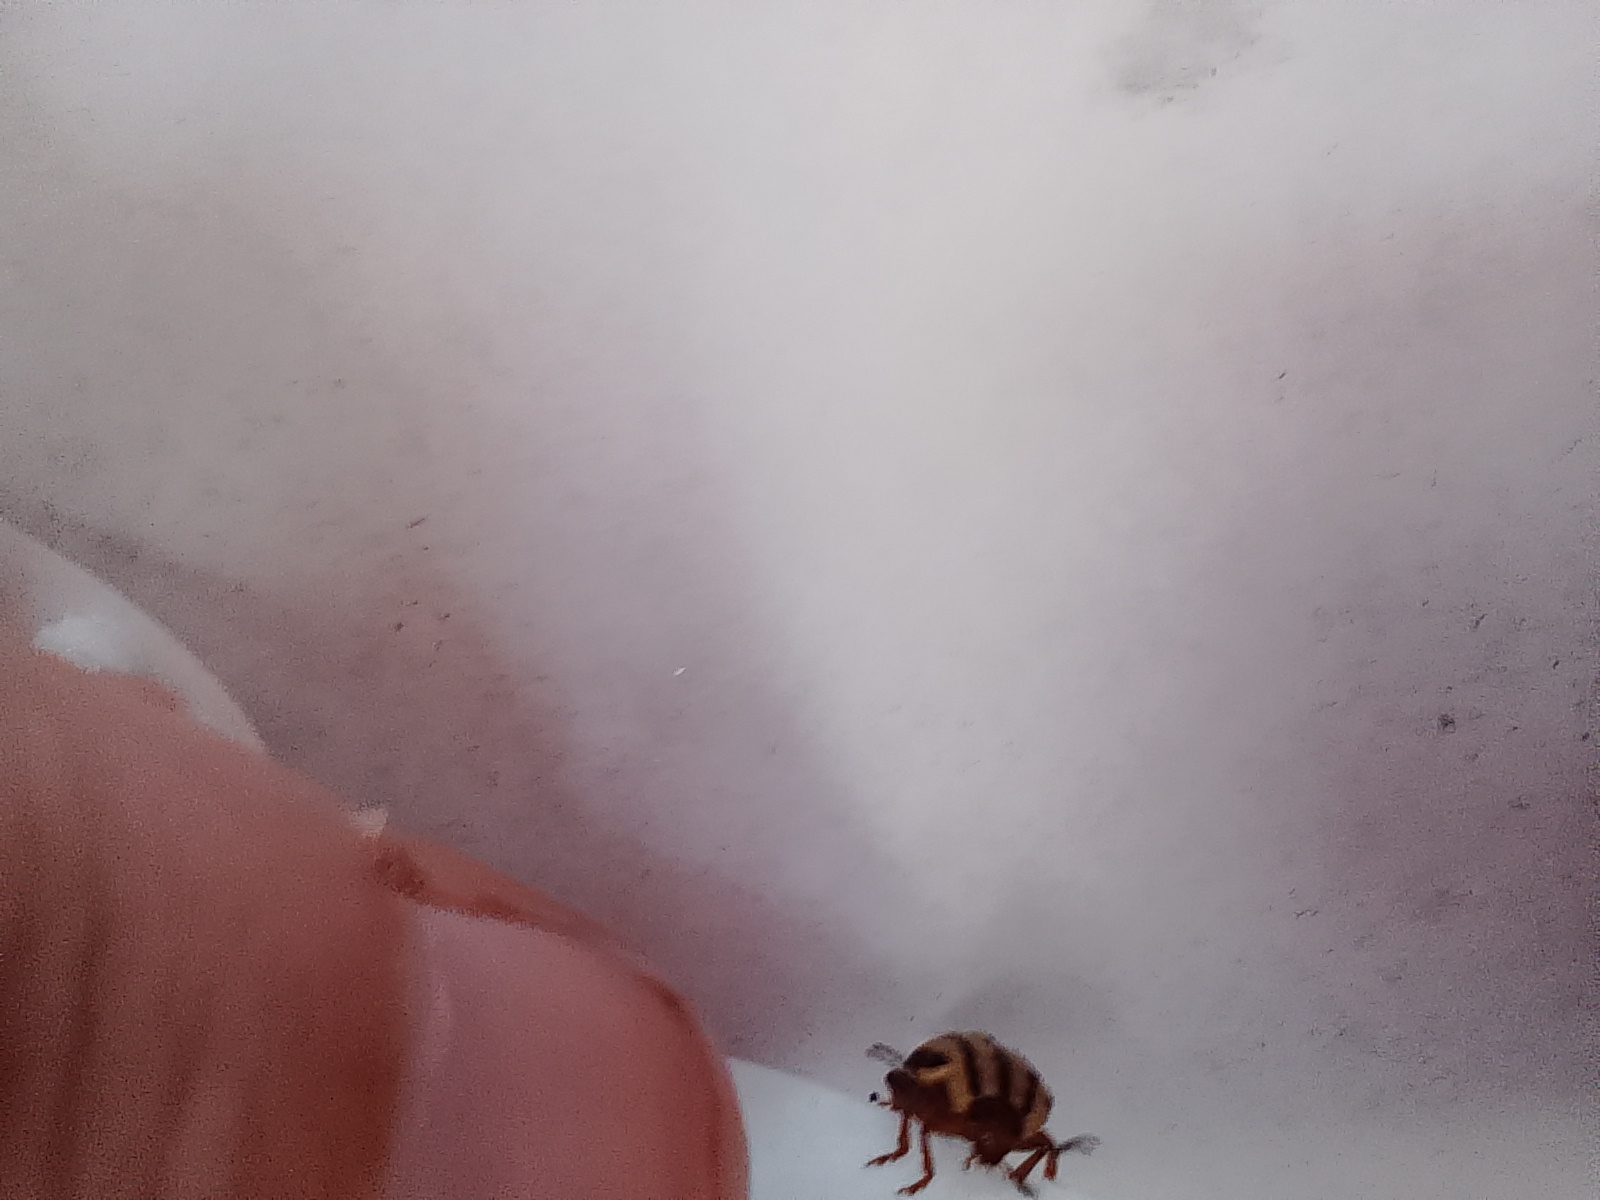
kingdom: Animalia
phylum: Arthropoda
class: Insecta
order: Coleoptera
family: Chrysomelidae
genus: Kuschelina
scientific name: Kuschelina
